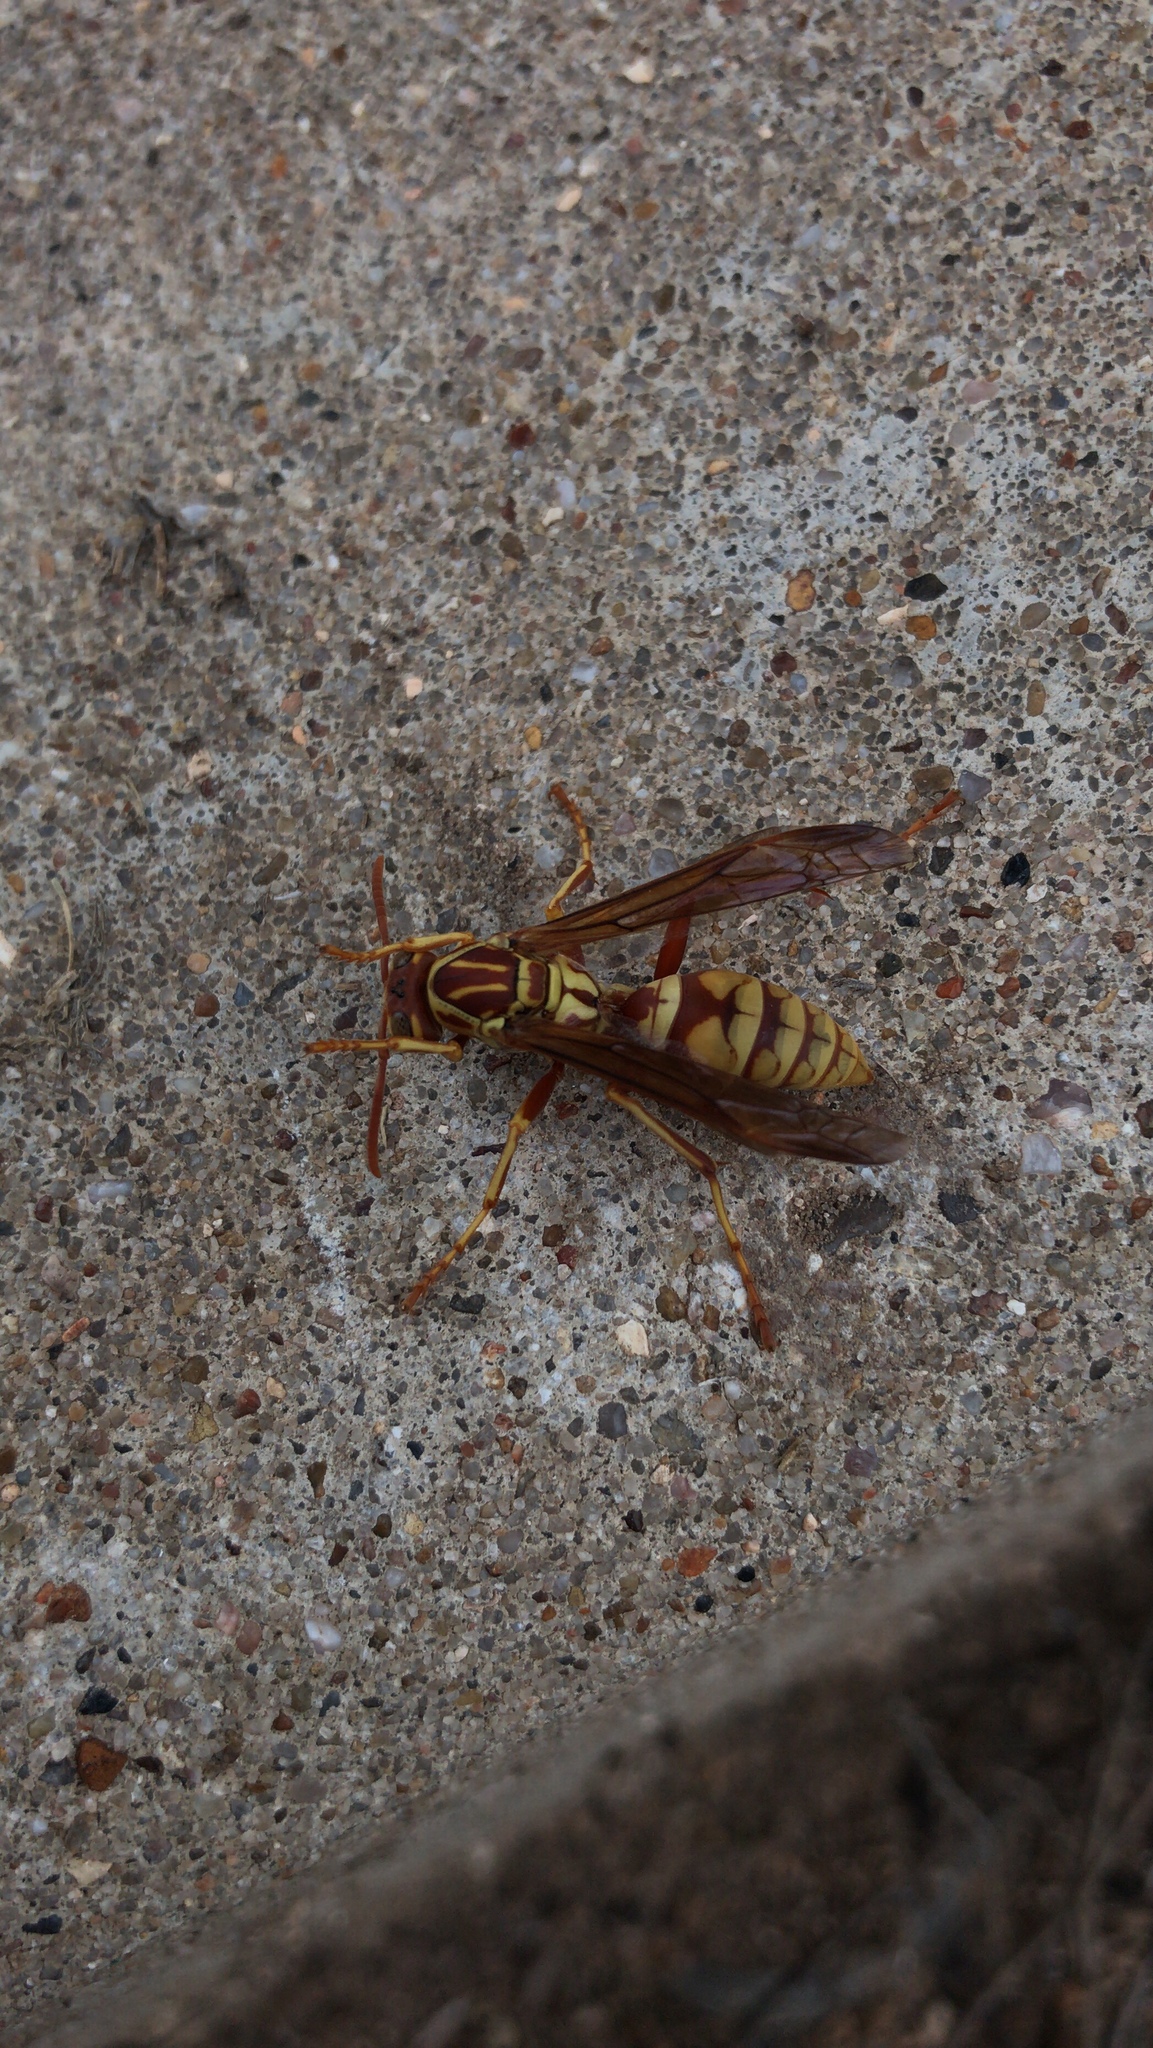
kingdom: Animalia
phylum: Arthropoda
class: Insecta
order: Hymenoptera
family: Eumenidae
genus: Polistes
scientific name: Polistes apachus
